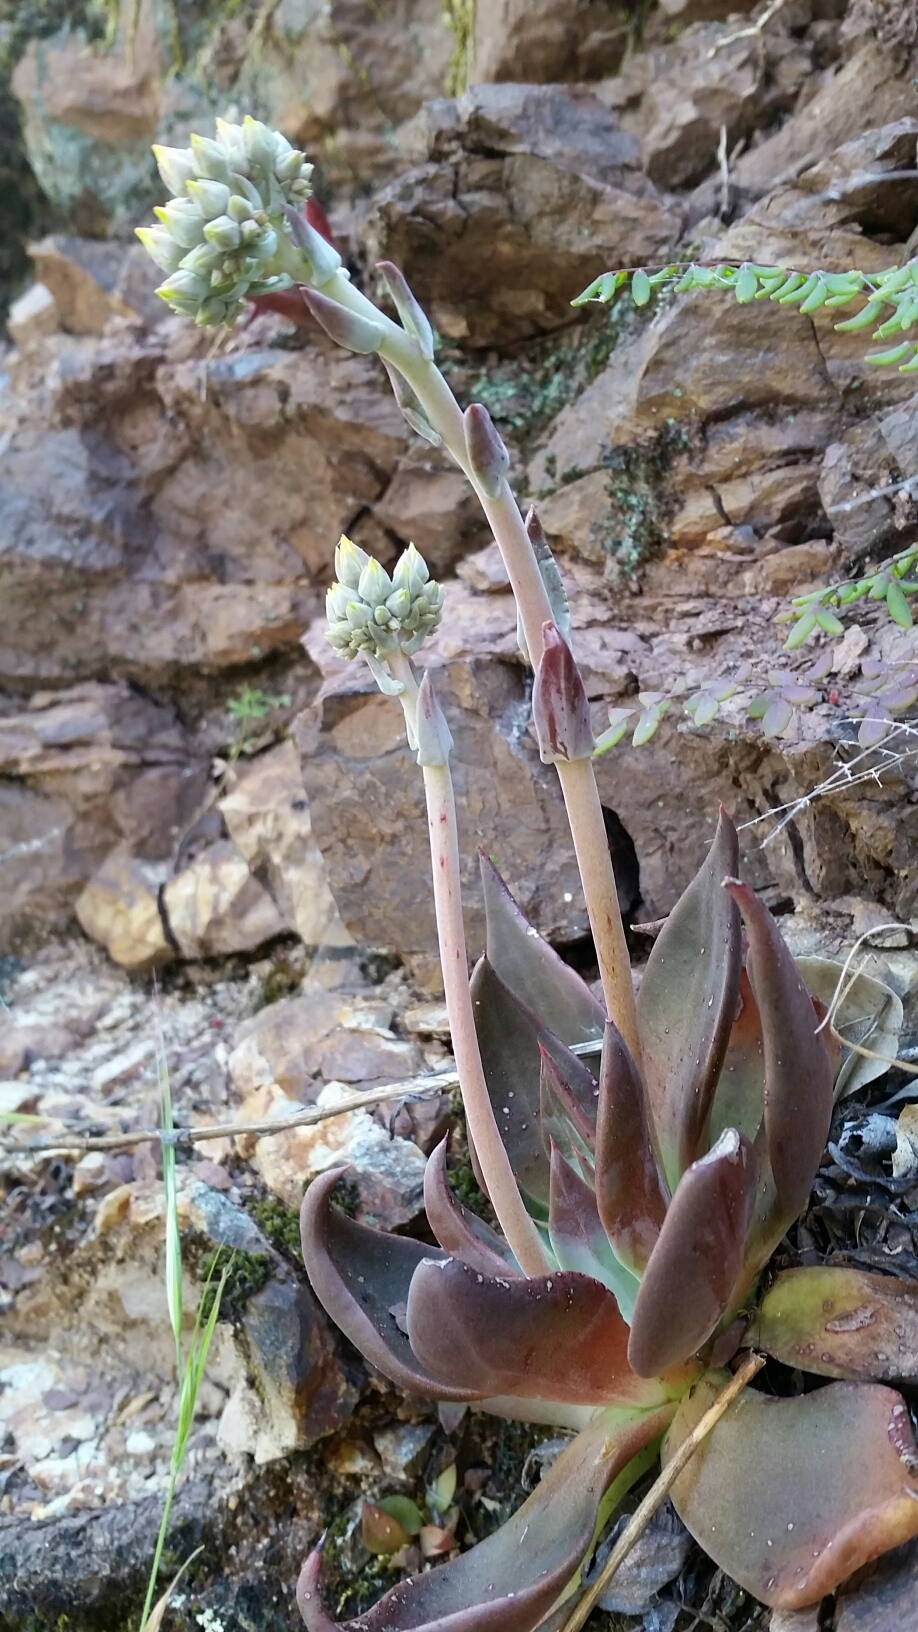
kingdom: Plantae
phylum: Tracheophyta
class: Magnoliopsida
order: Saxifragales
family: Crassulaceae
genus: Dudleya
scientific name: Dudleya cymosa
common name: Canyon dudleya
